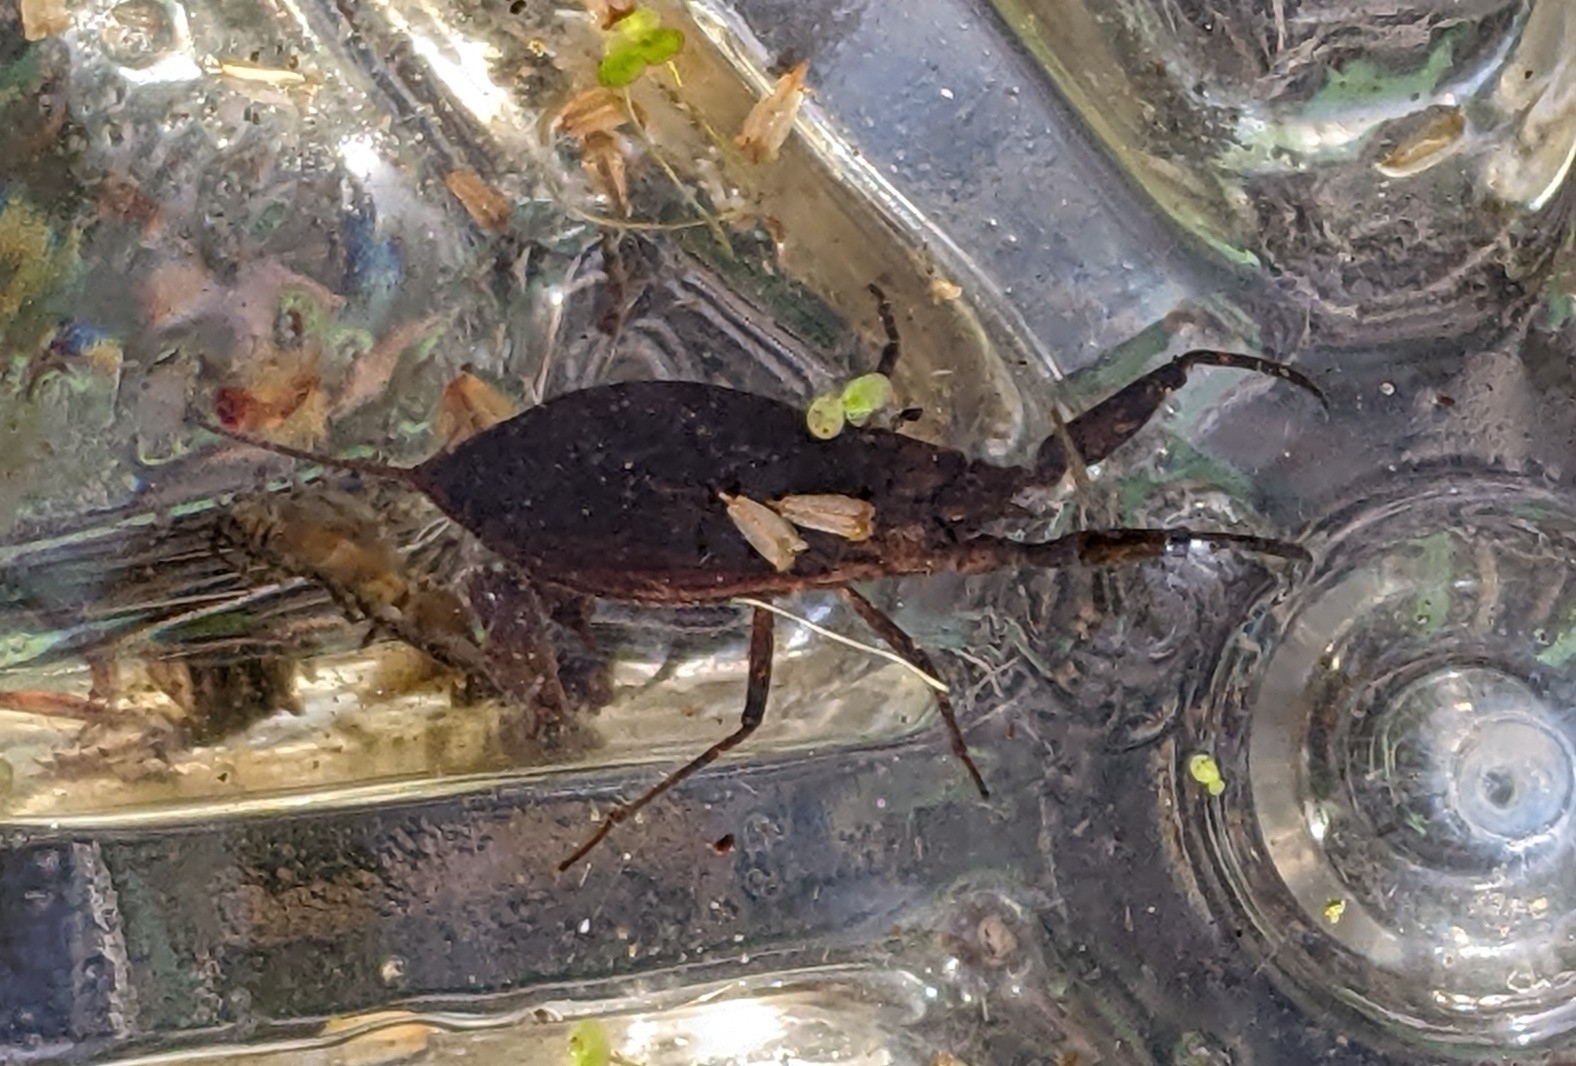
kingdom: Animalia
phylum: Arthropoda
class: Insecta
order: Hemiptera
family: Nepidae
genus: Nepa
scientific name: Nepa cinerea
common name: Water scorpion
